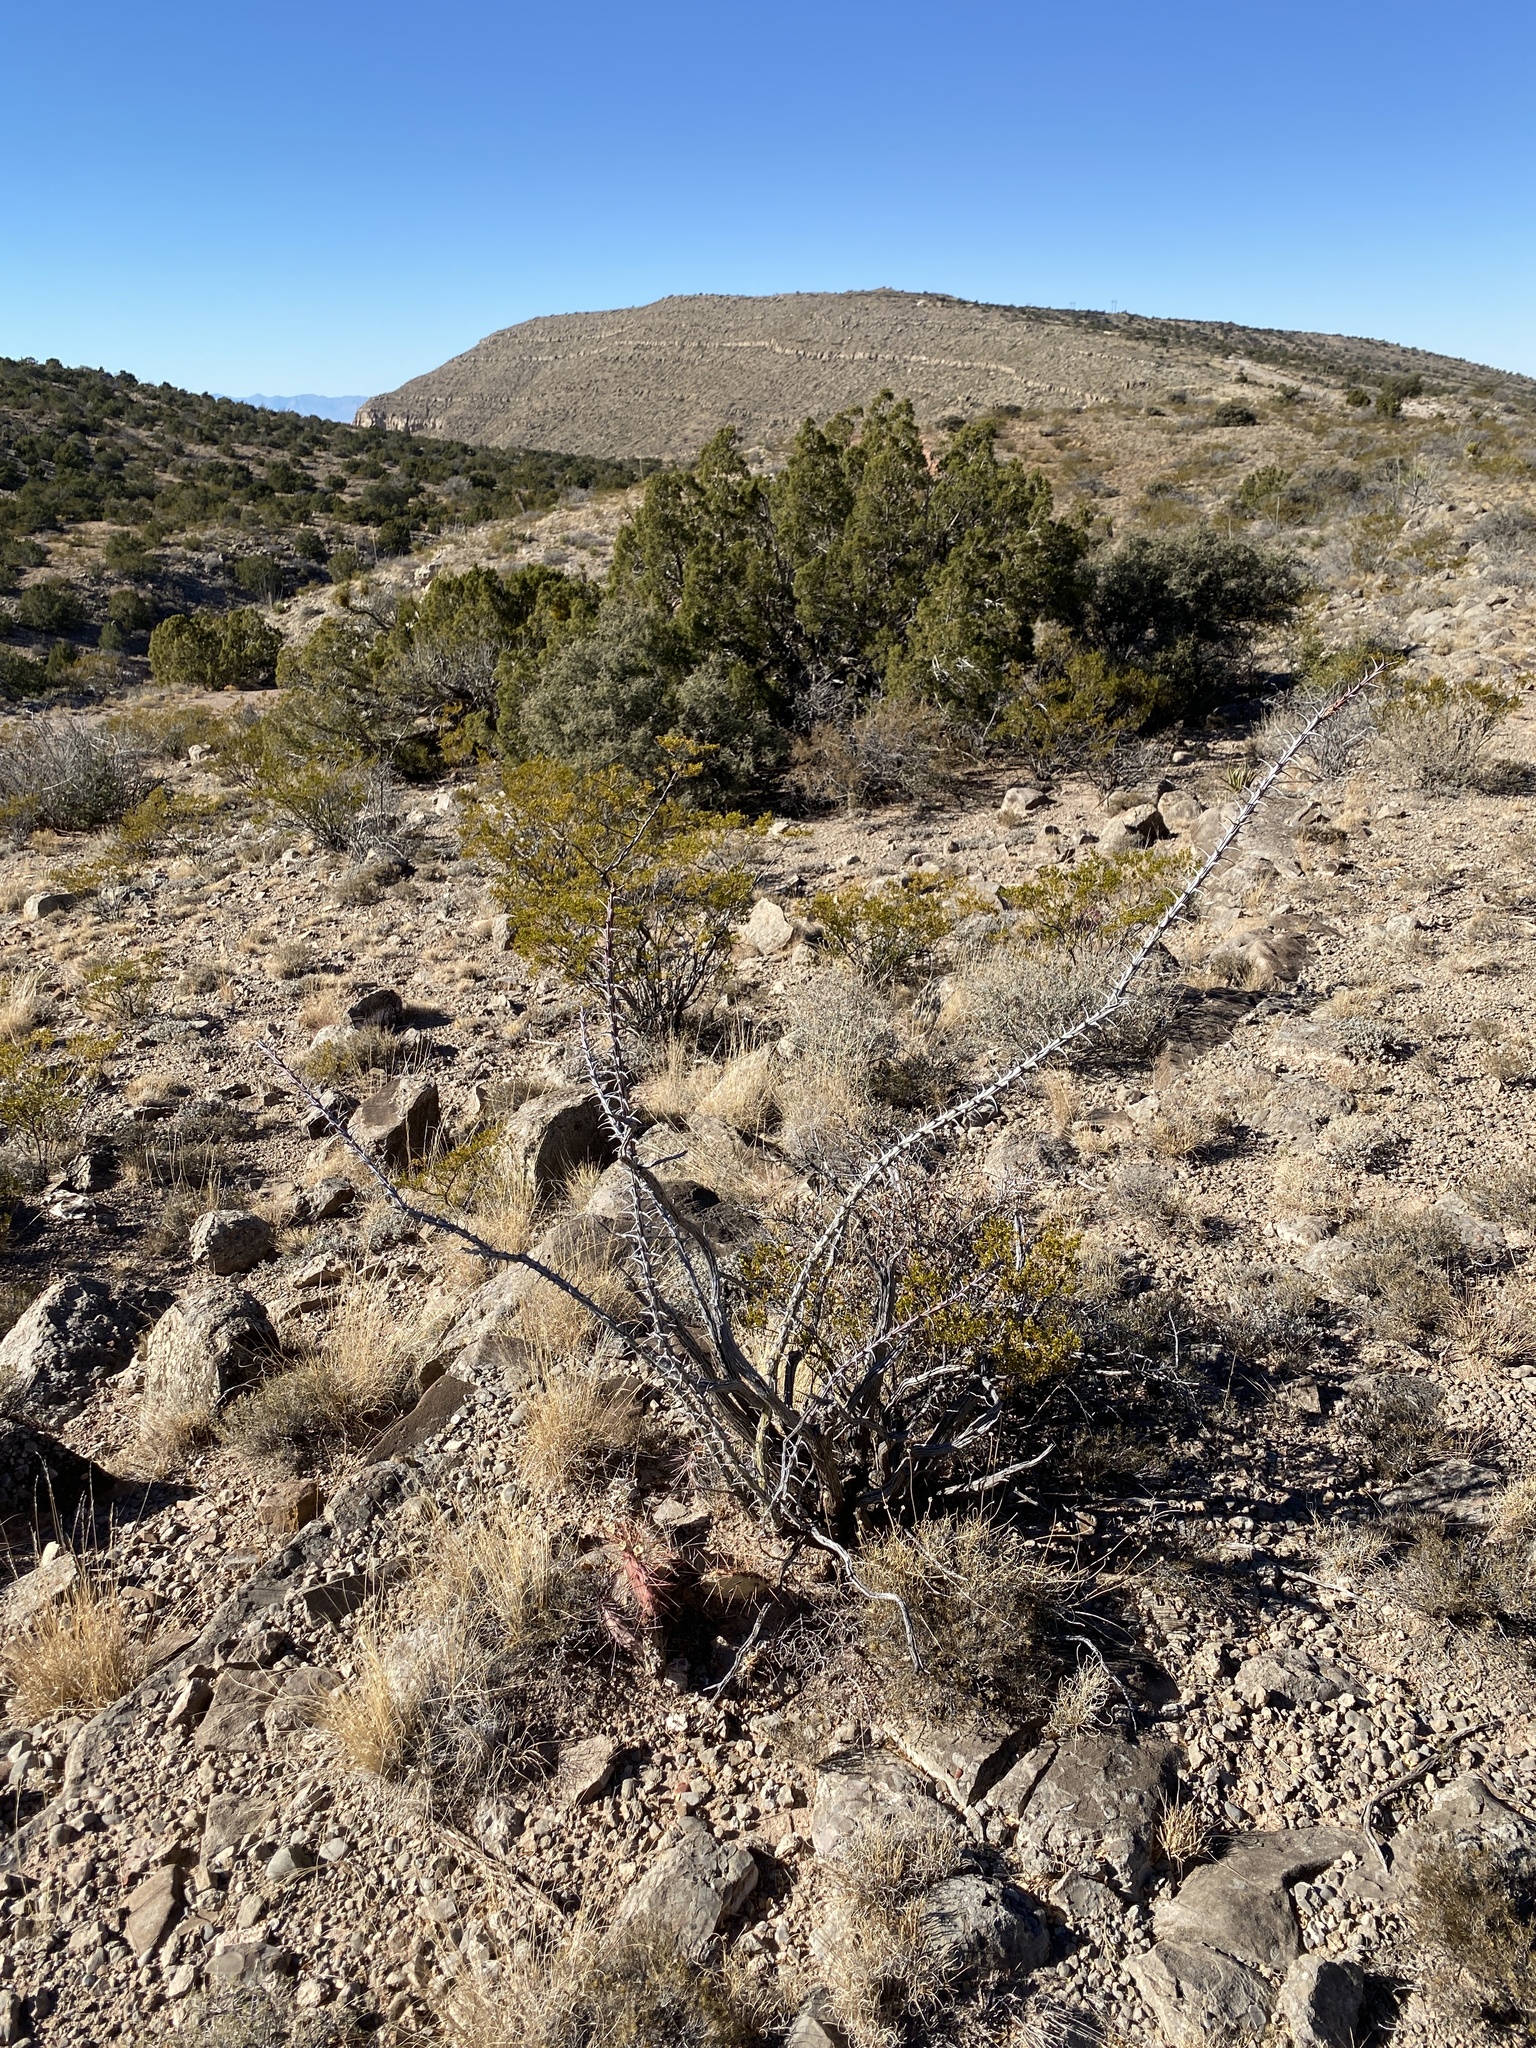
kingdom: Plantae
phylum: Tracheophyta
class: Magnoliopsida
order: Ericales
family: Fouquieriaceae
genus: Fouquieria
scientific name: Fouquieria splendens
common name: Vine-cactus
